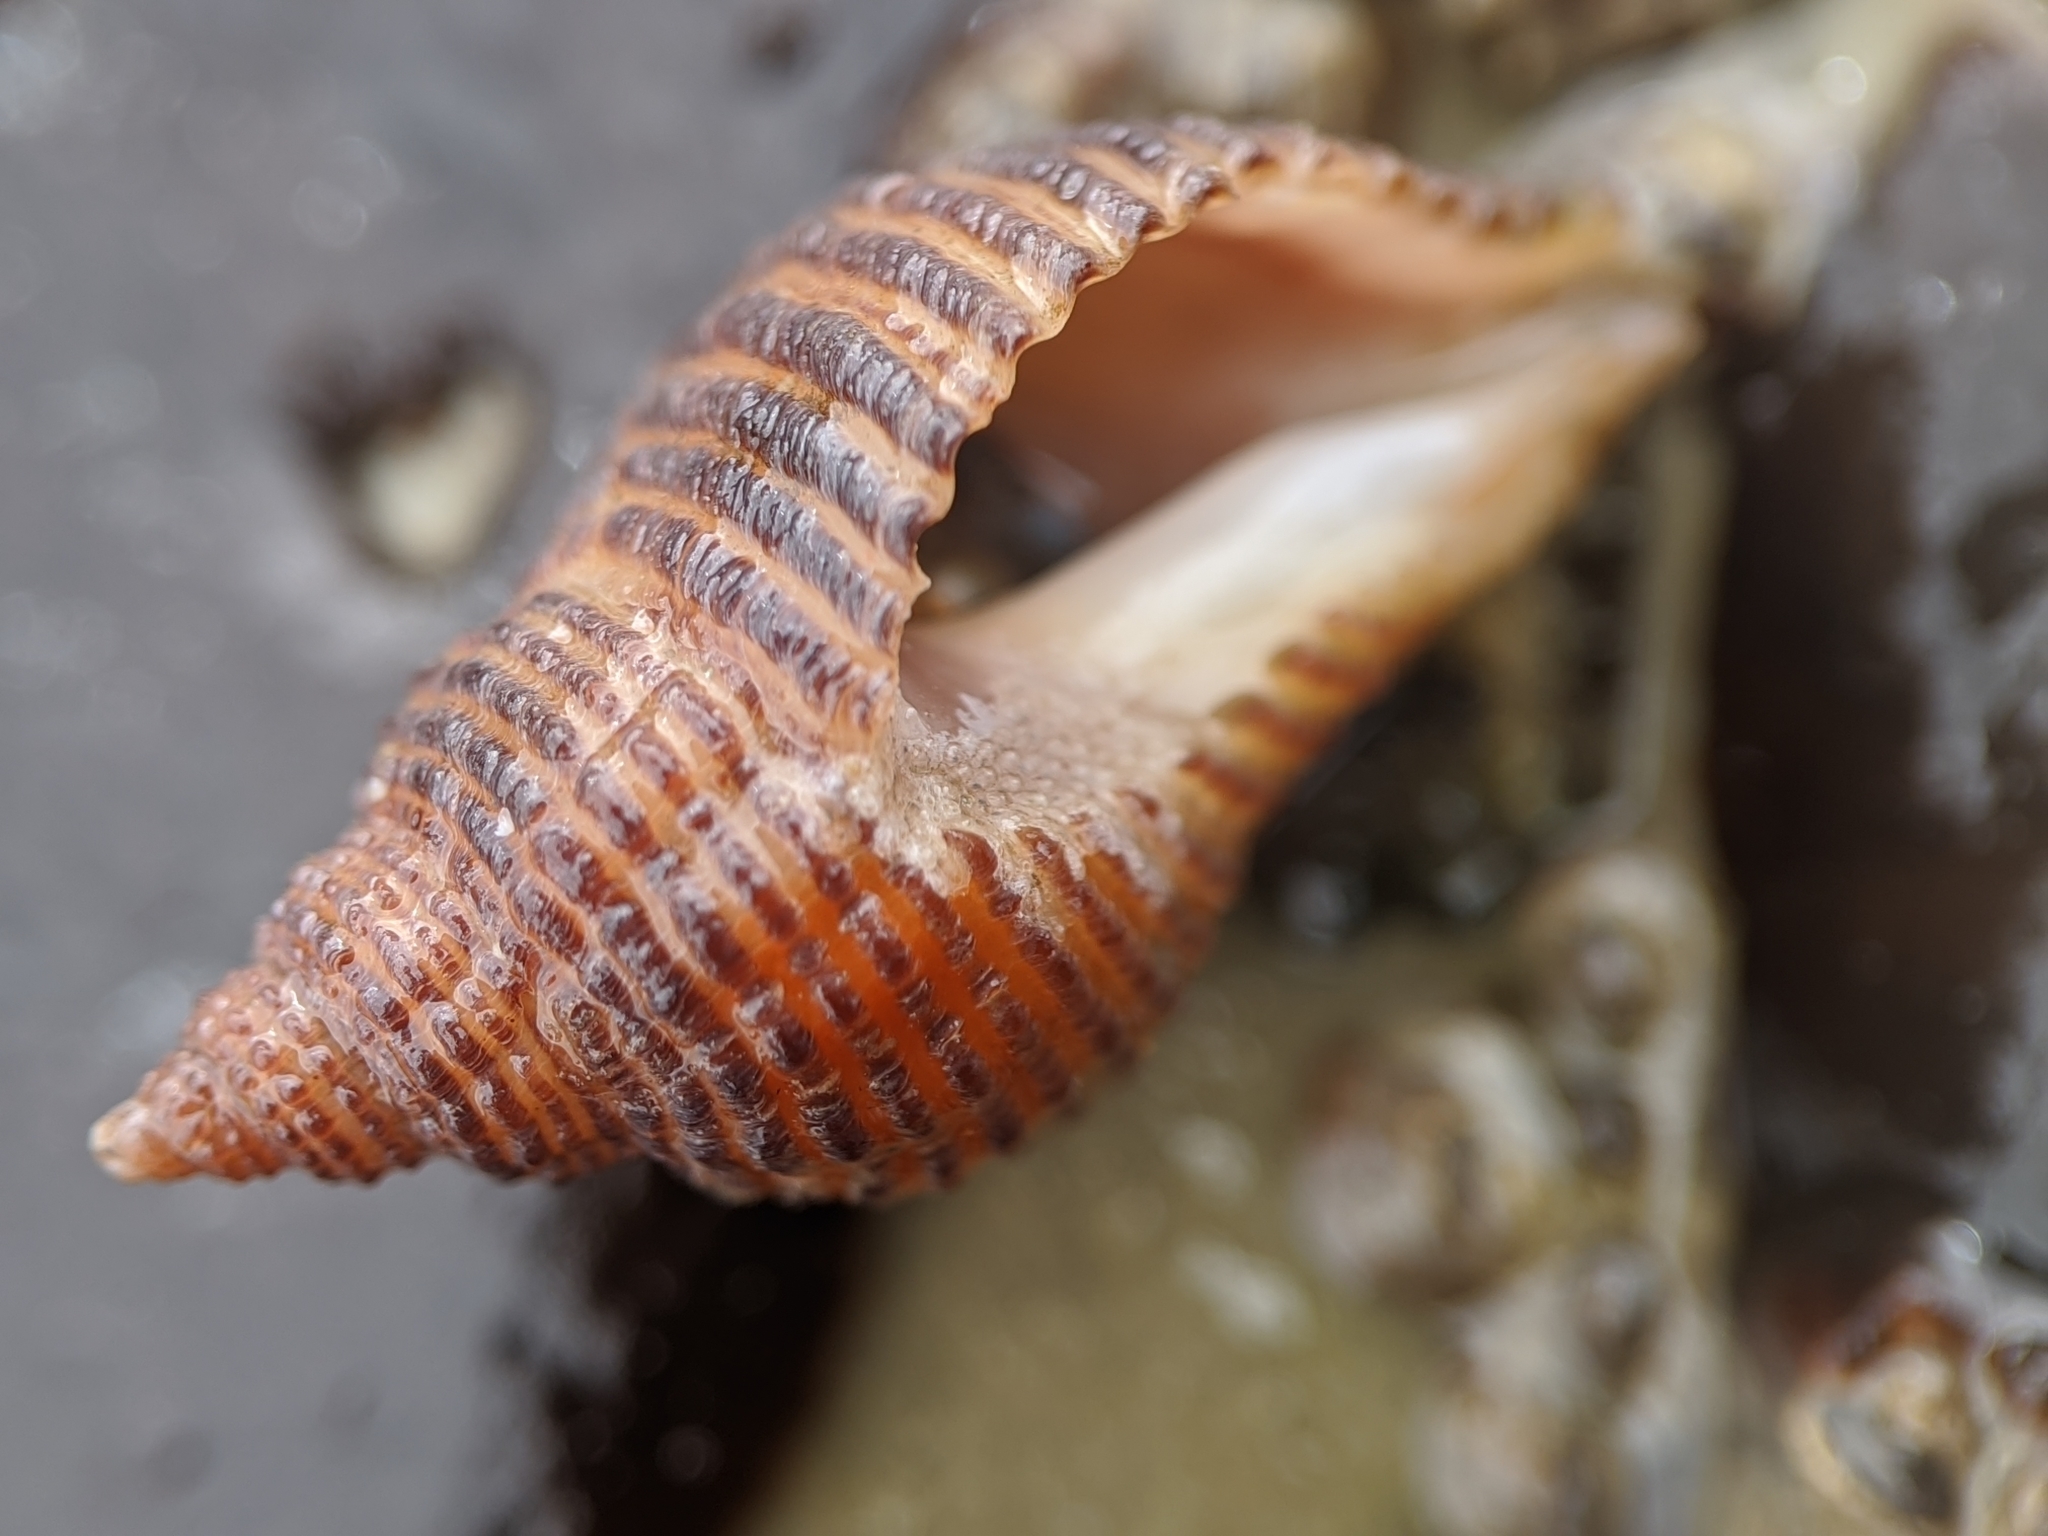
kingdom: Animalia
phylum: Mollusca
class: Gastropoda
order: Neogastropoda
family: Muricidae
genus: Nucella
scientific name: Nucella analoga
